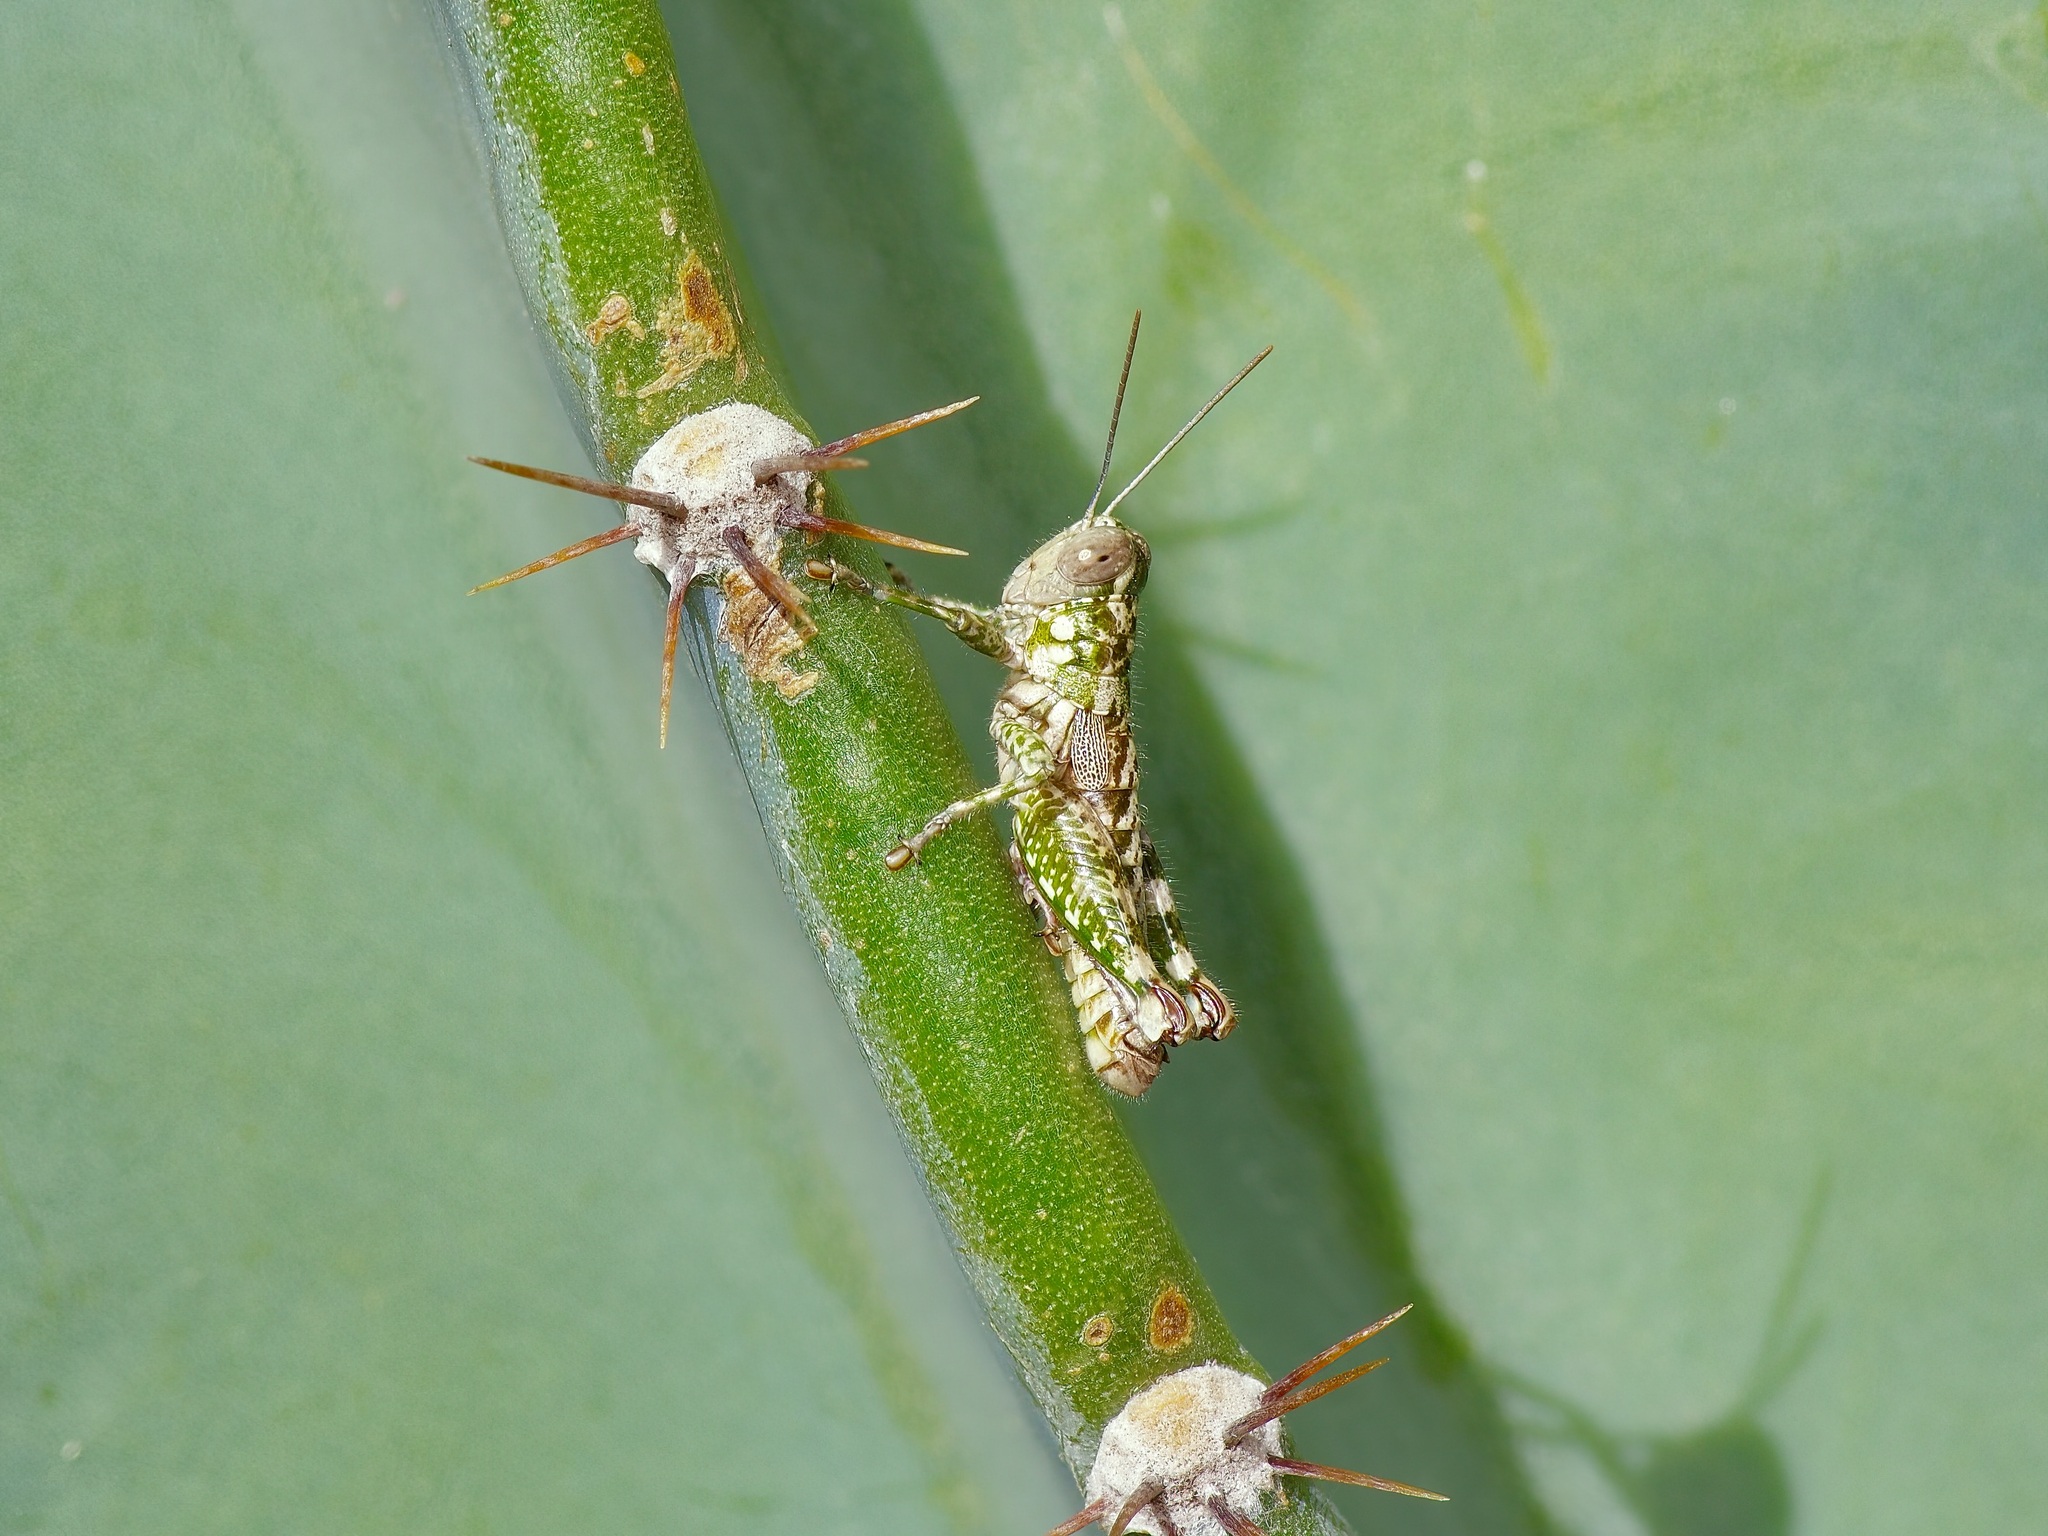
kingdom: Animalia
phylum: Arthropoda
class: Insecta
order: Orthoptera
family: Acrididae
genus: Phaulotettix
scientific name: Phaulotettix compressus
